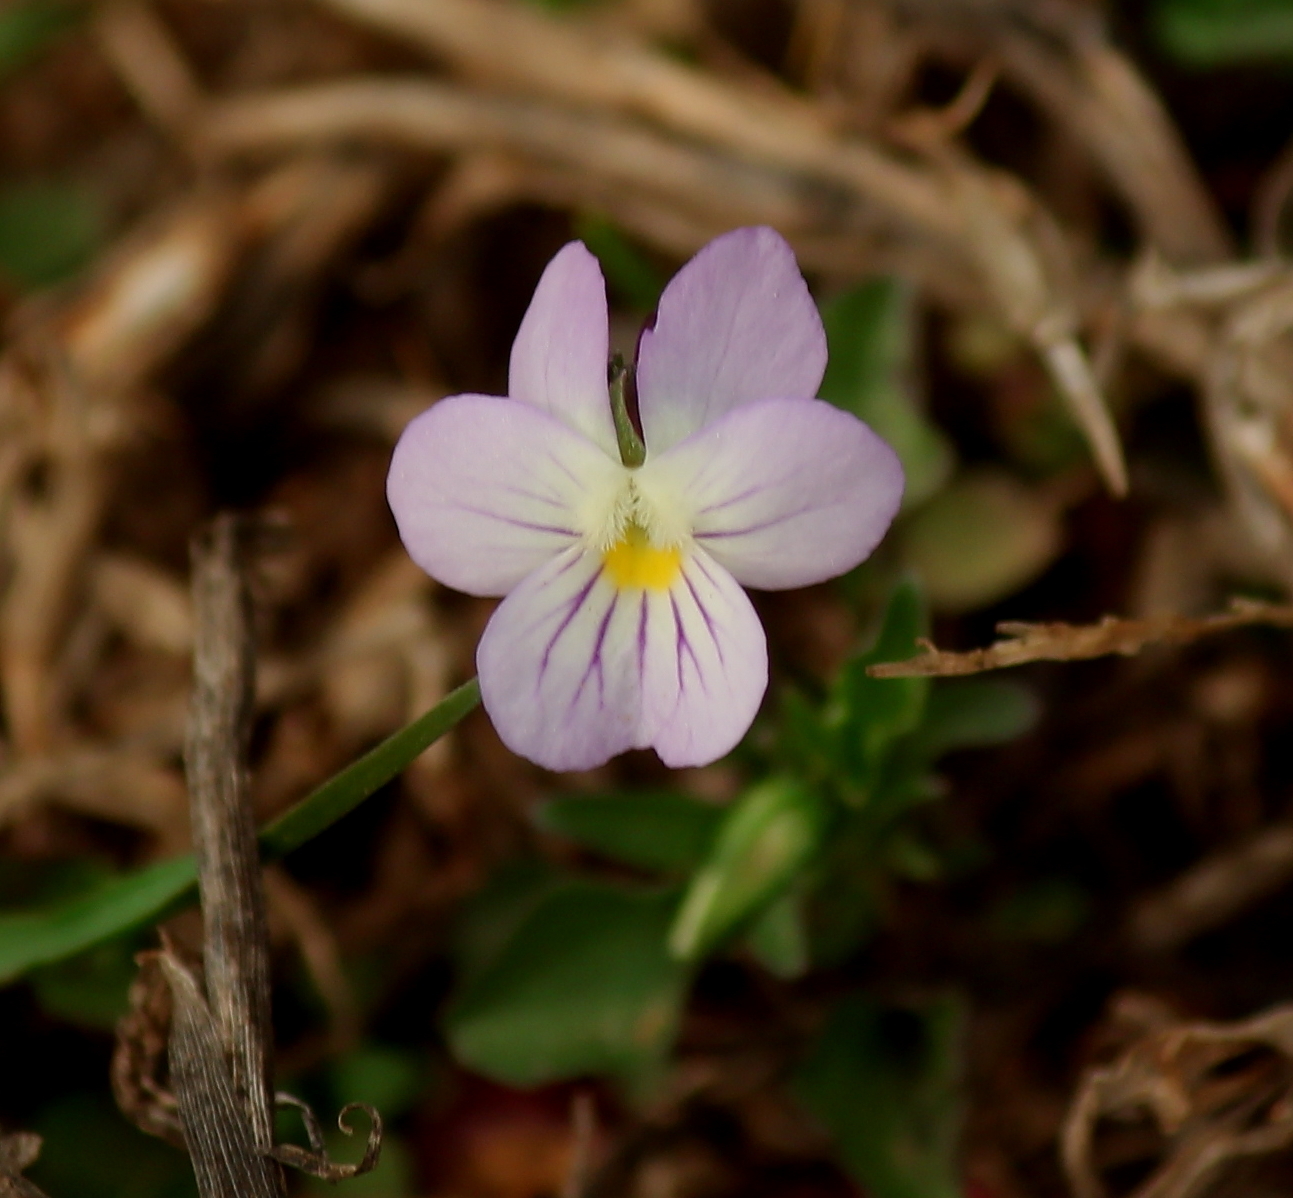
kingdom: Plantae
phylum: Tracheophyta
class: Magnoliopsida
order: Malpighiales
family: Violaceae
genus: Viola
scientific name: Viola rafinesquei
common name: American field pansy
